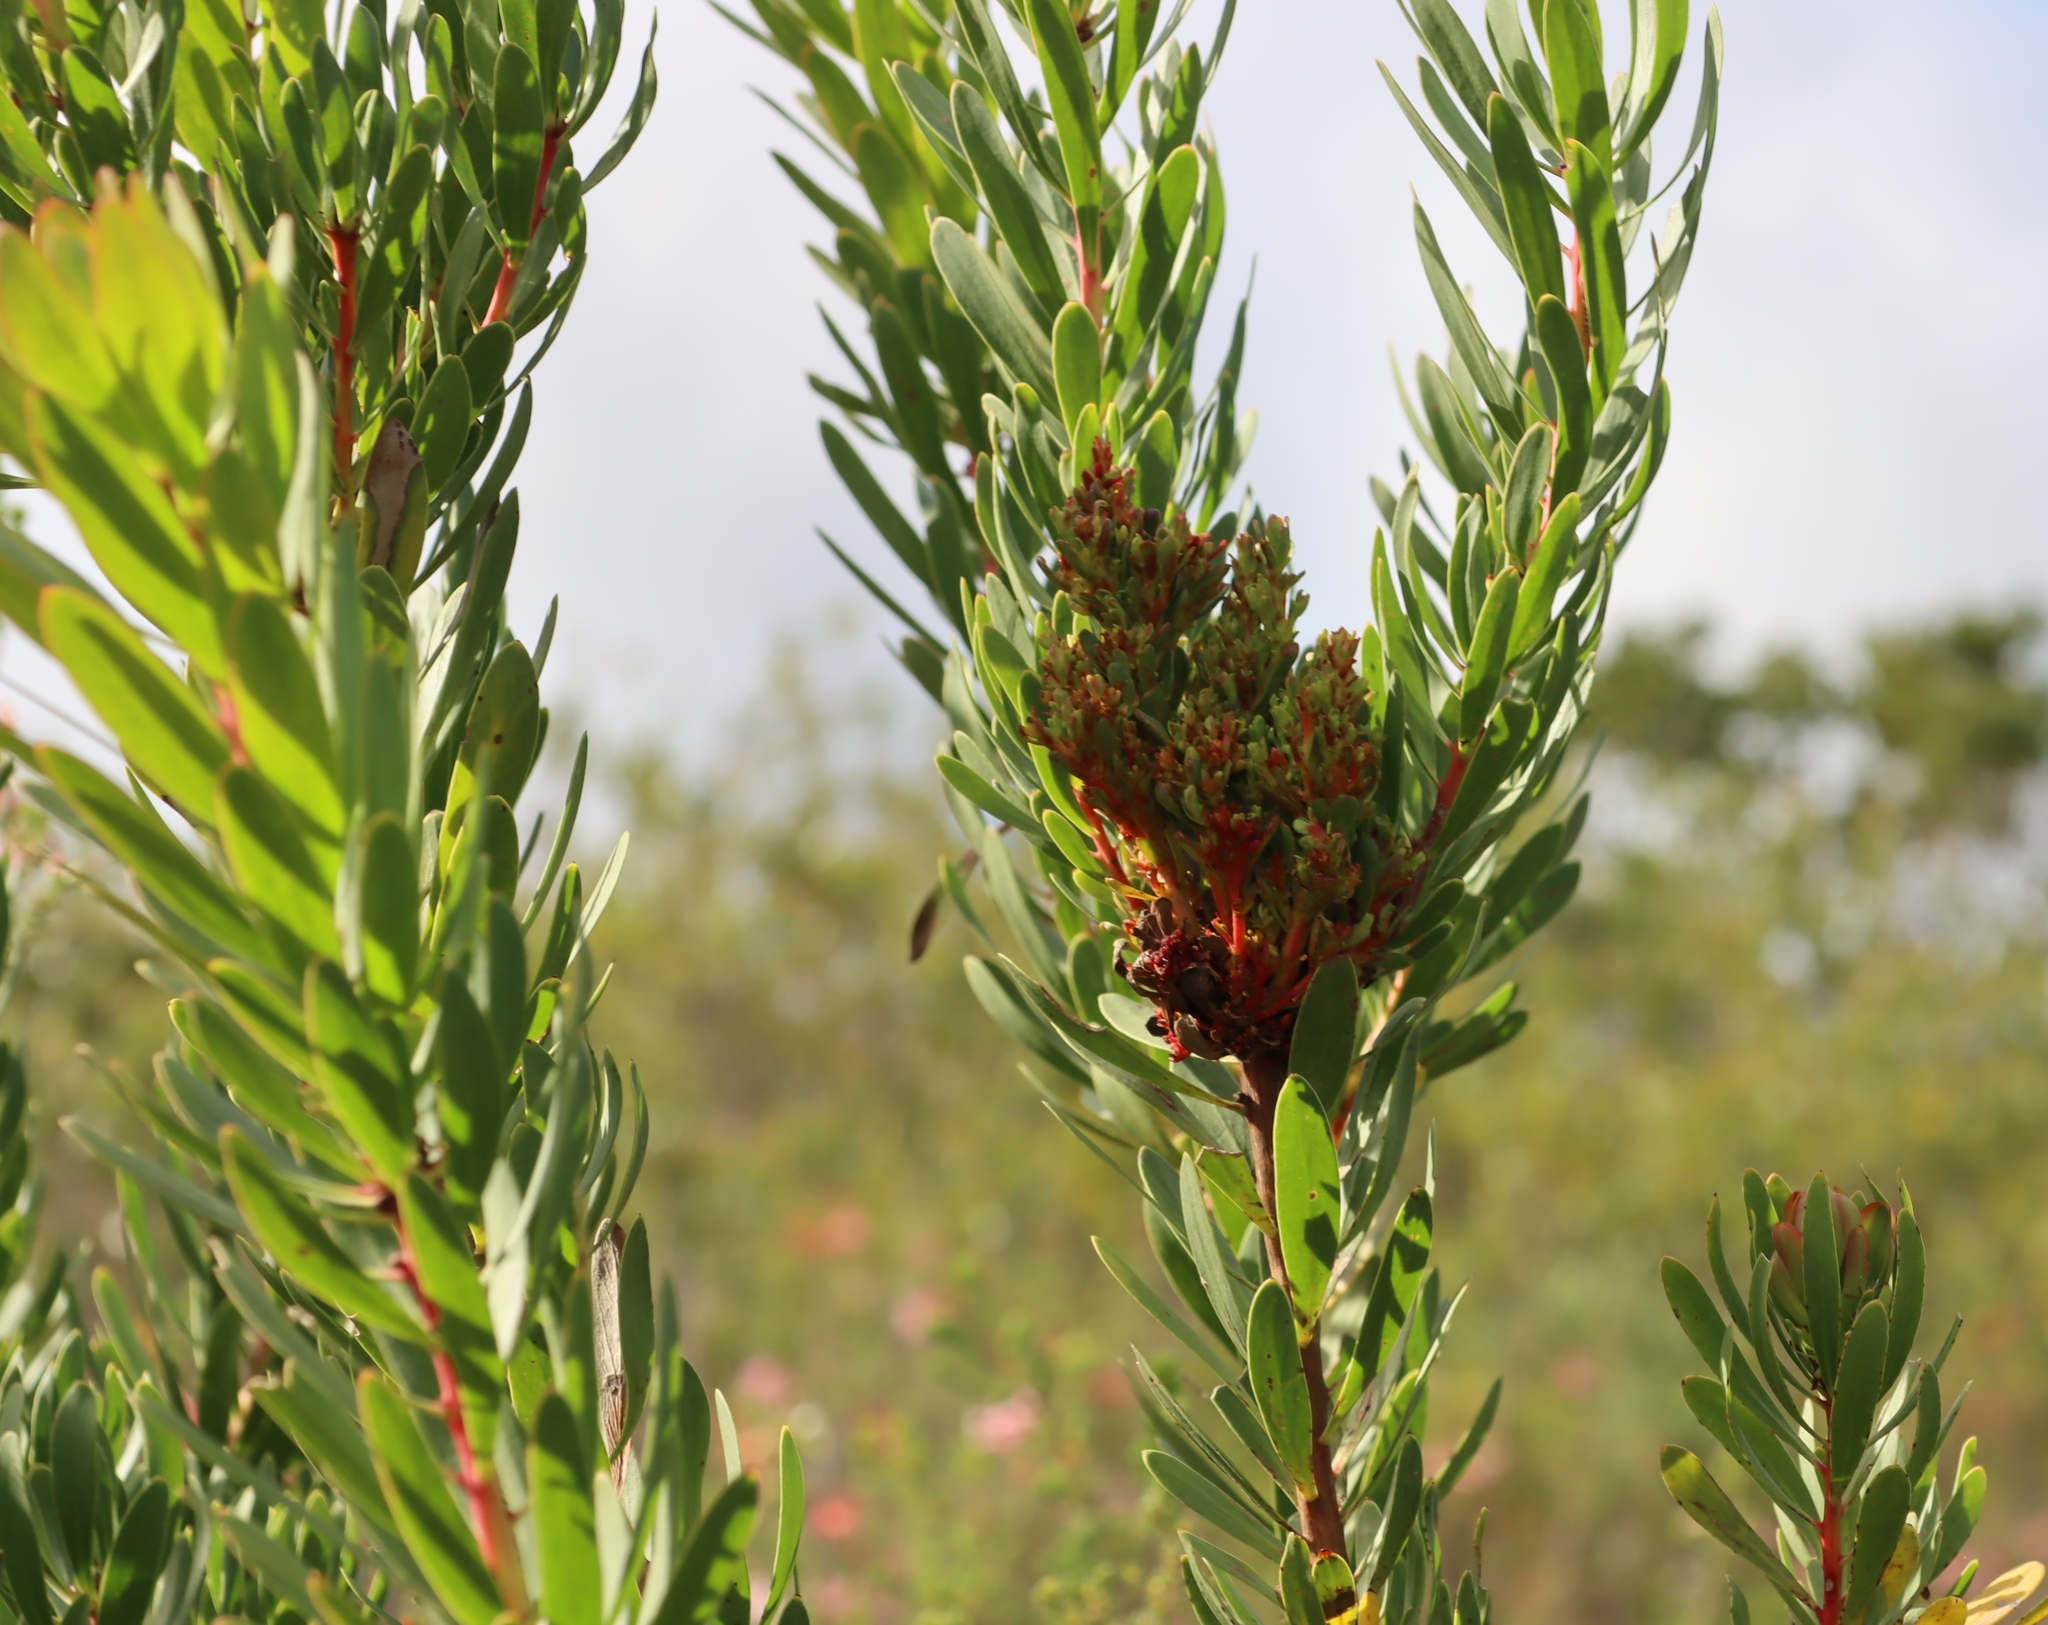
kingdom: Bacteria
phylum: Firmicutes
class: Bacilli
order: Acholeplasmatales
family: Acholeplasmataceae
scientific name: Acholeplasmataceae
